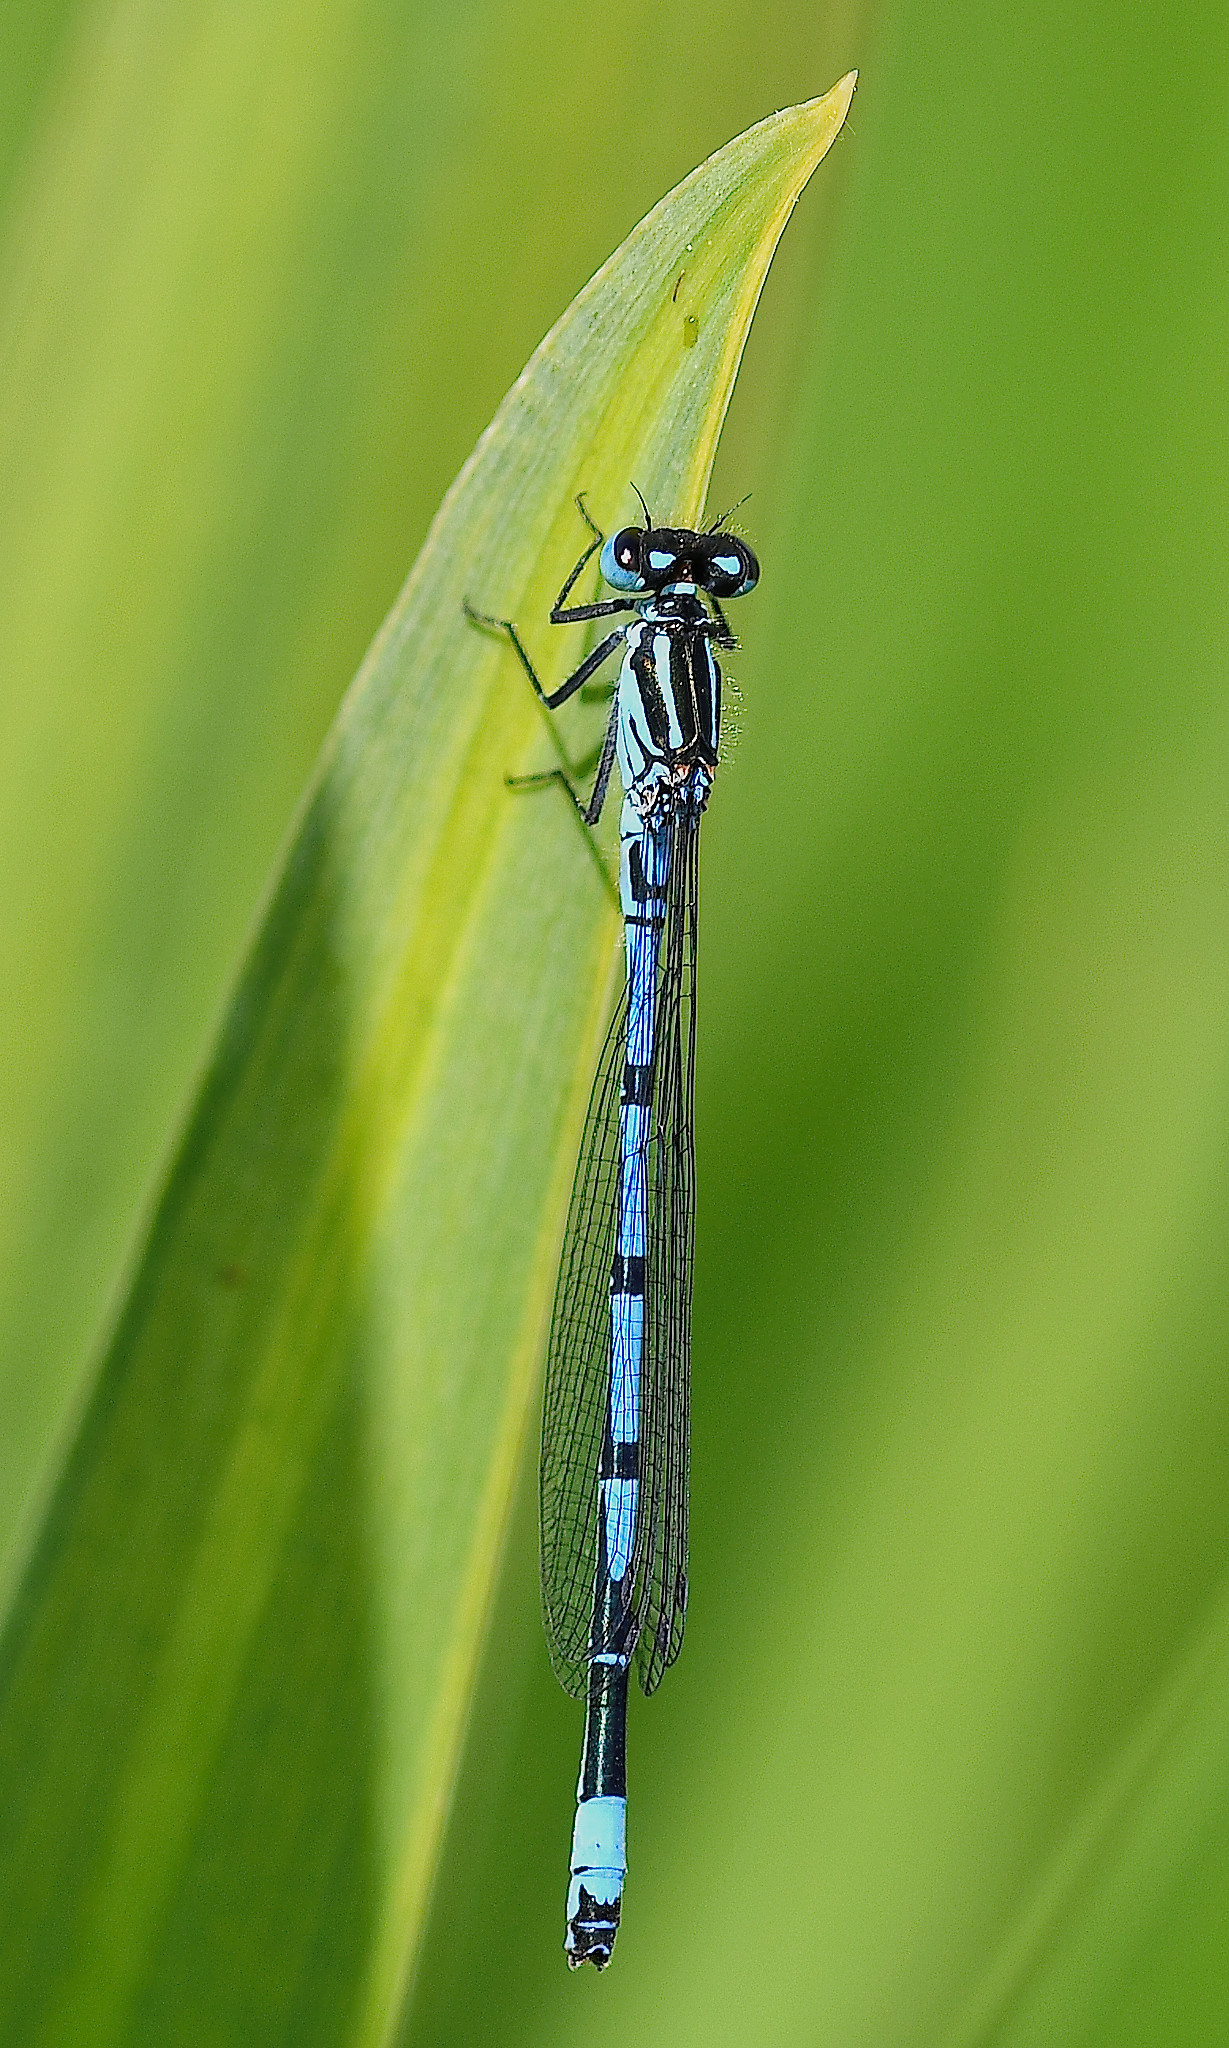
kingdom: Animalia
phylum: Arthropoda
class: Insecta
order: Odonata
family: Coenagrionidae
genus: Coenagrion
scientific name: Coenagrion puella
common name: Azure damselfly
